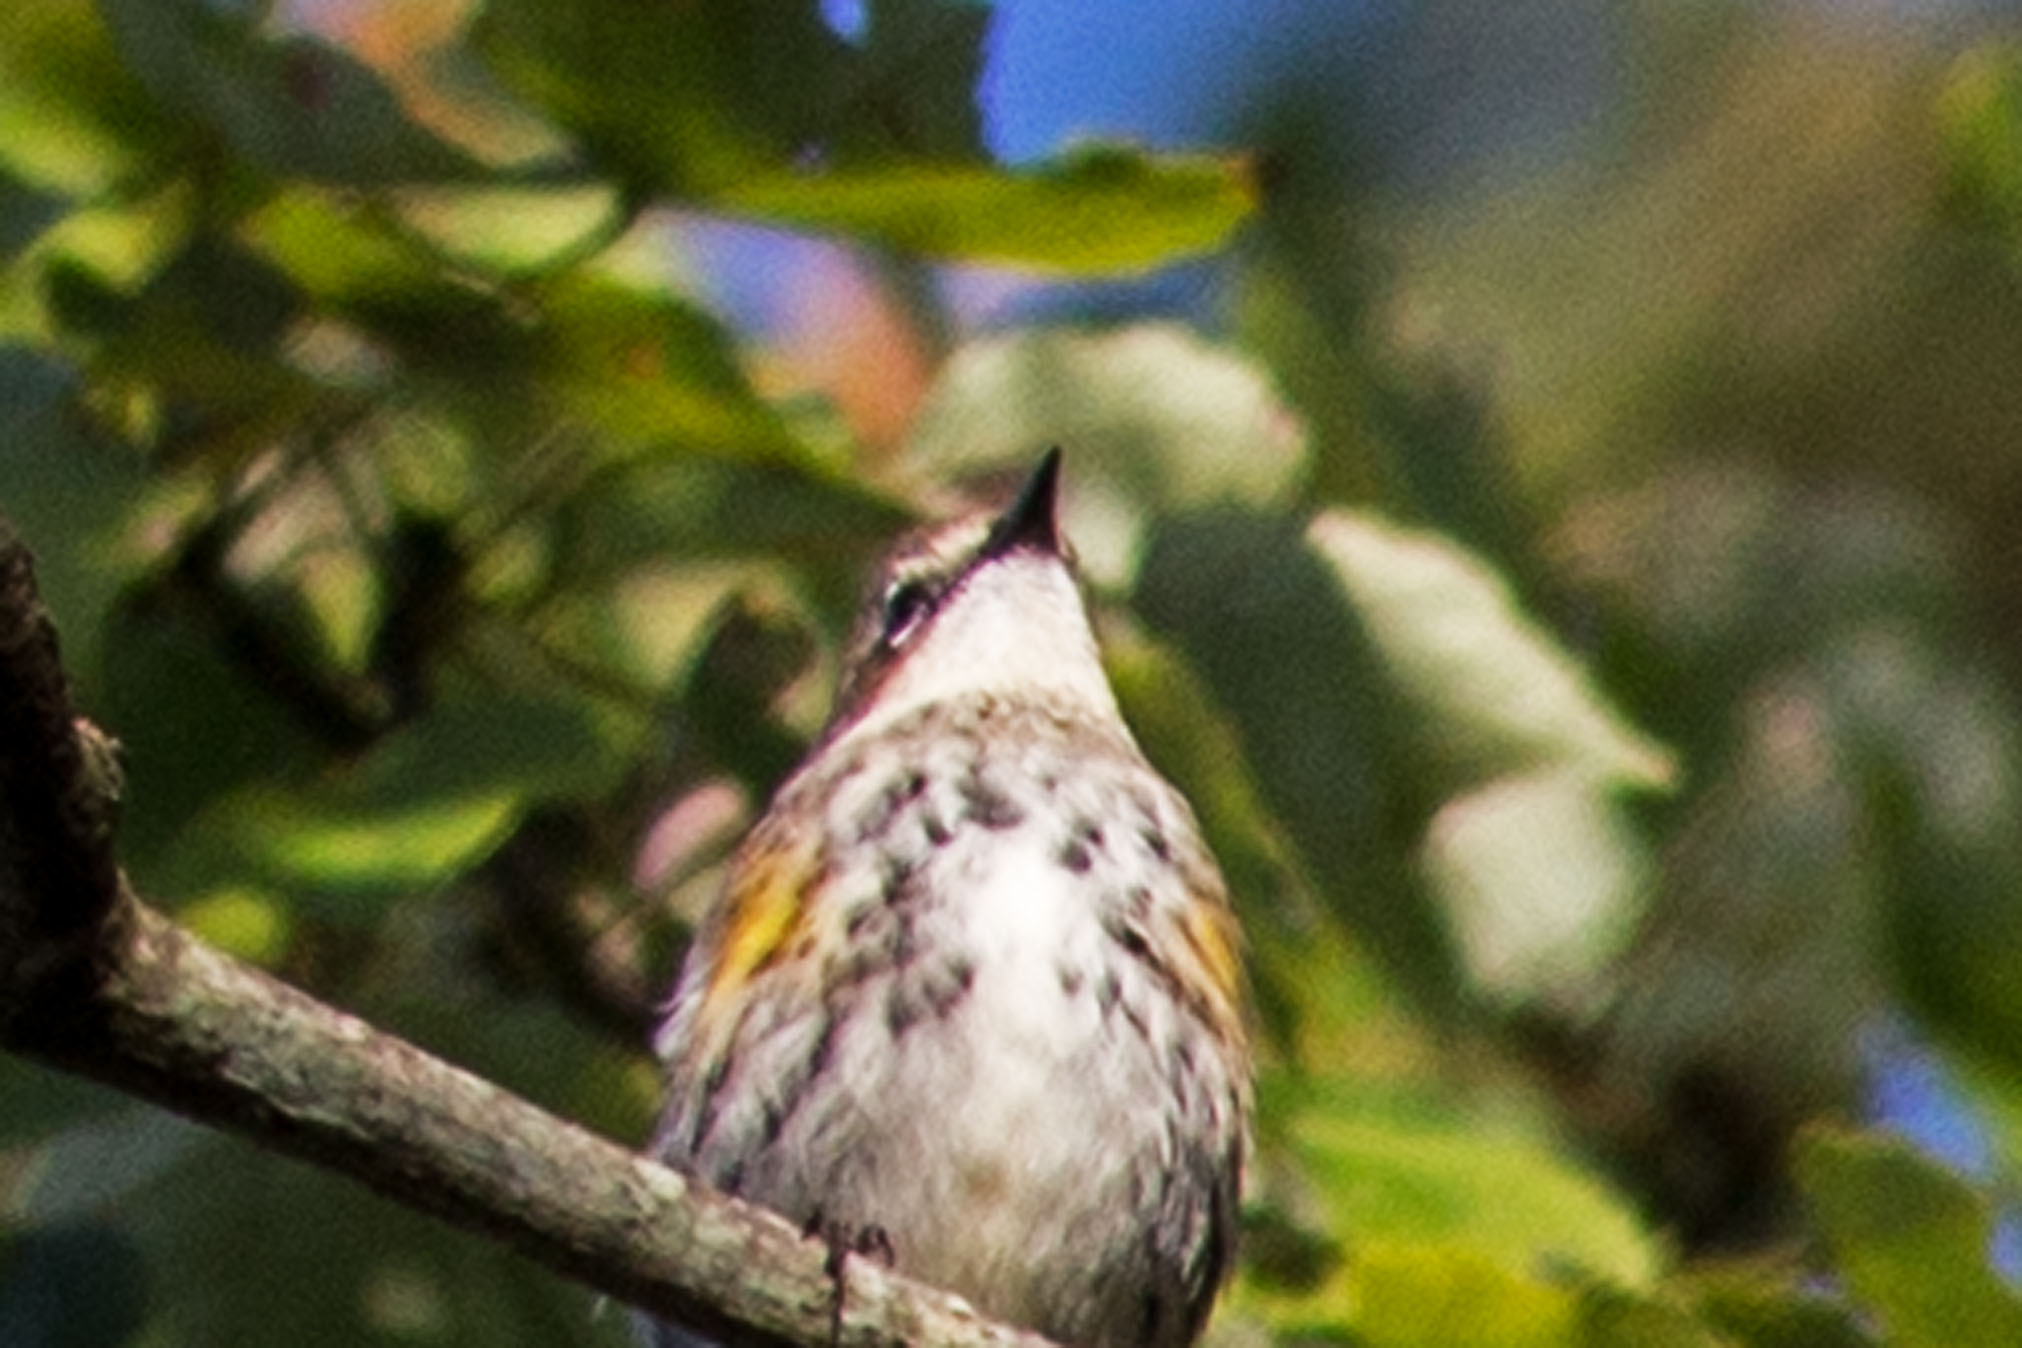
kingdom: Animalia
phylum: Chordata
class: Aves
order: Passeriformes
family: Parulidae
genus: Setophaga
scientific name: Setophaga coronata
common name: Myrtle warbler
